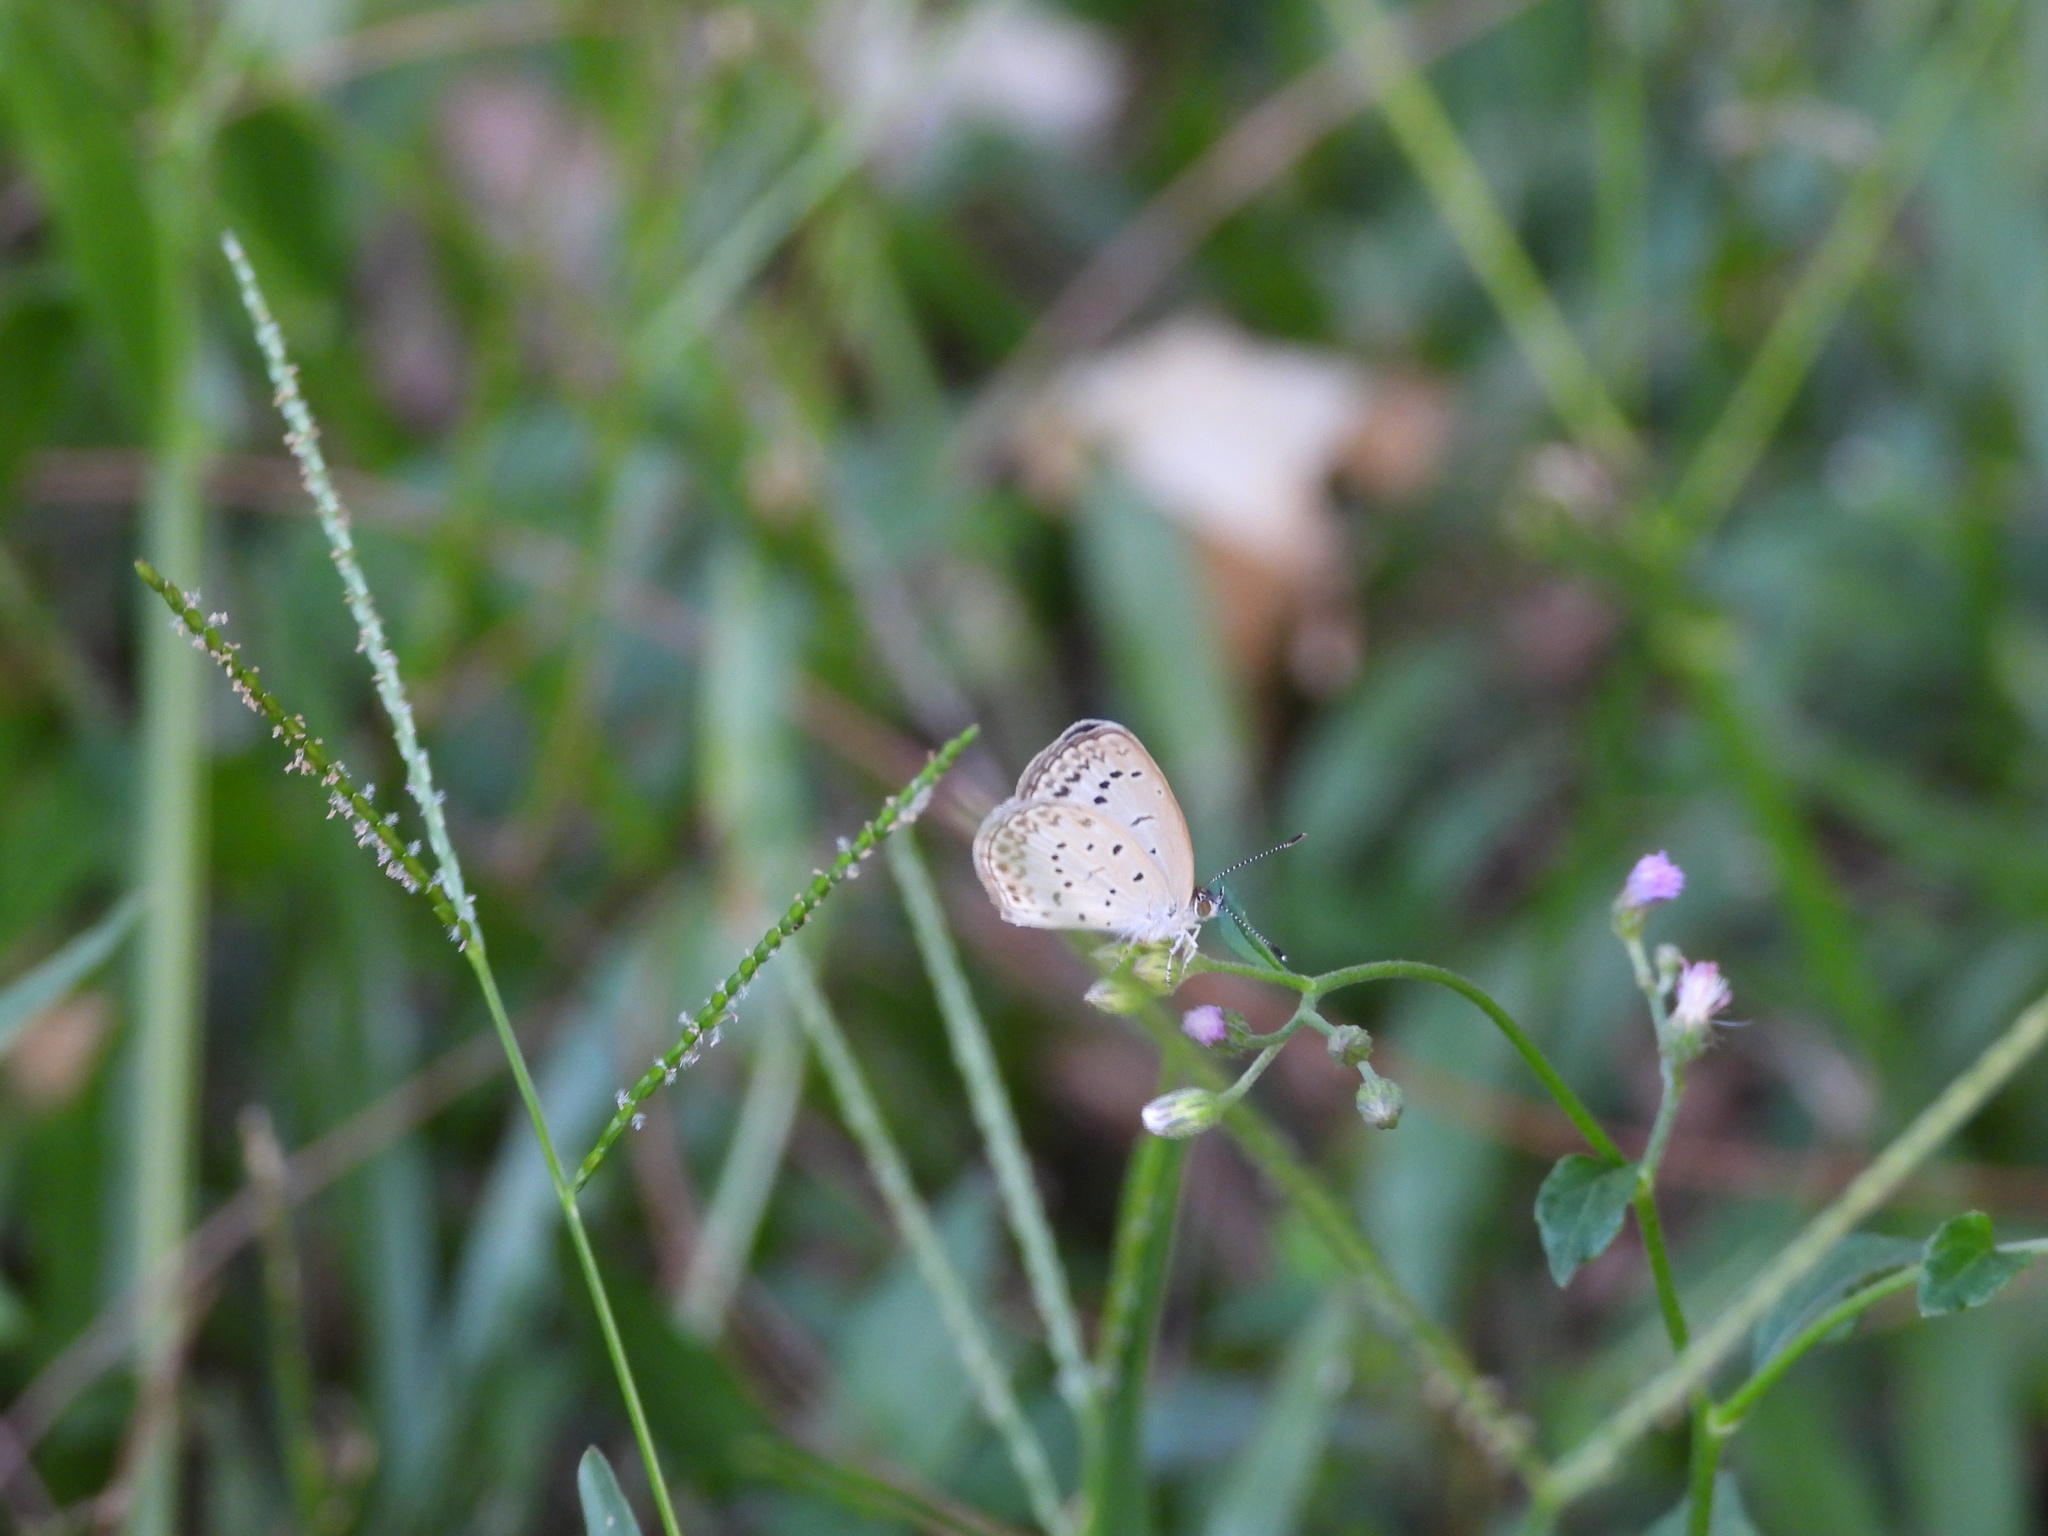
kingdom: Animalia
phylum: Arthropoda
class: Insecta
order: Lepidoptera
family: Lycaenidae
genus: Pseudozizeeria
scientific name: Pseudozizeeria maha
